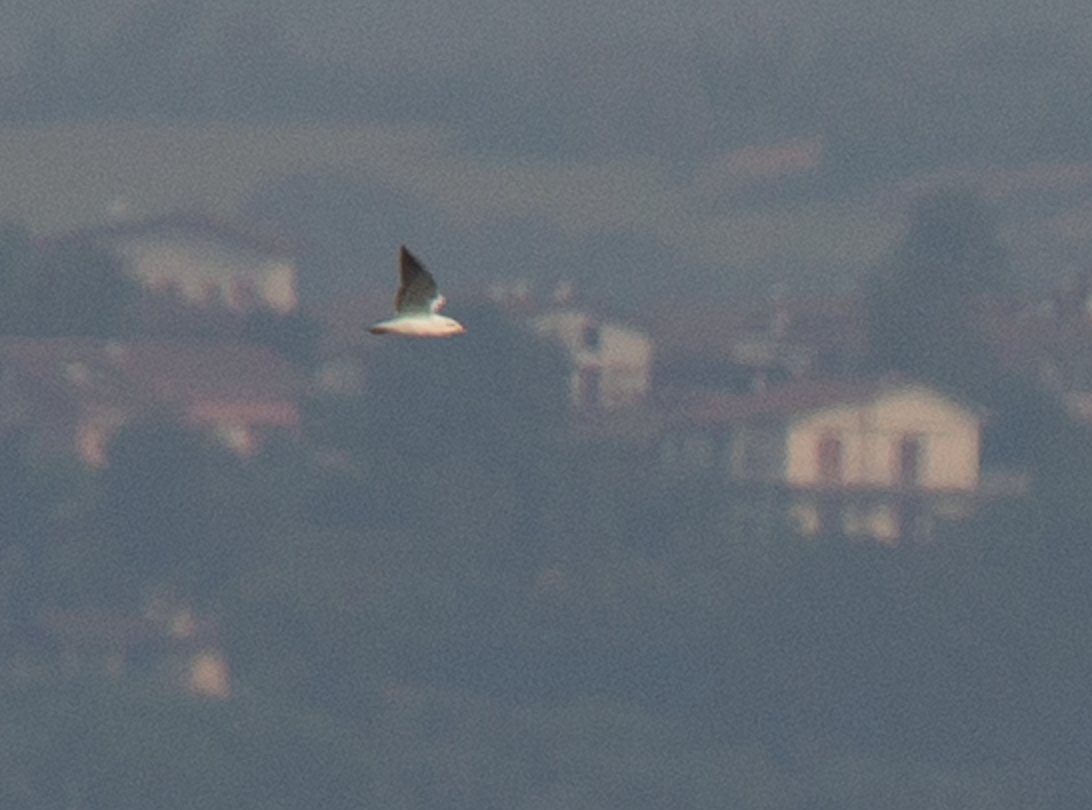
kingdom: Animalia
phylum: Chordata
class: Aves
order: Charadriiformes
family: Laridae
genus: Chroicocephalus
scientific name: Chroicocephalus ridibundus
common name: Black-headed gull
